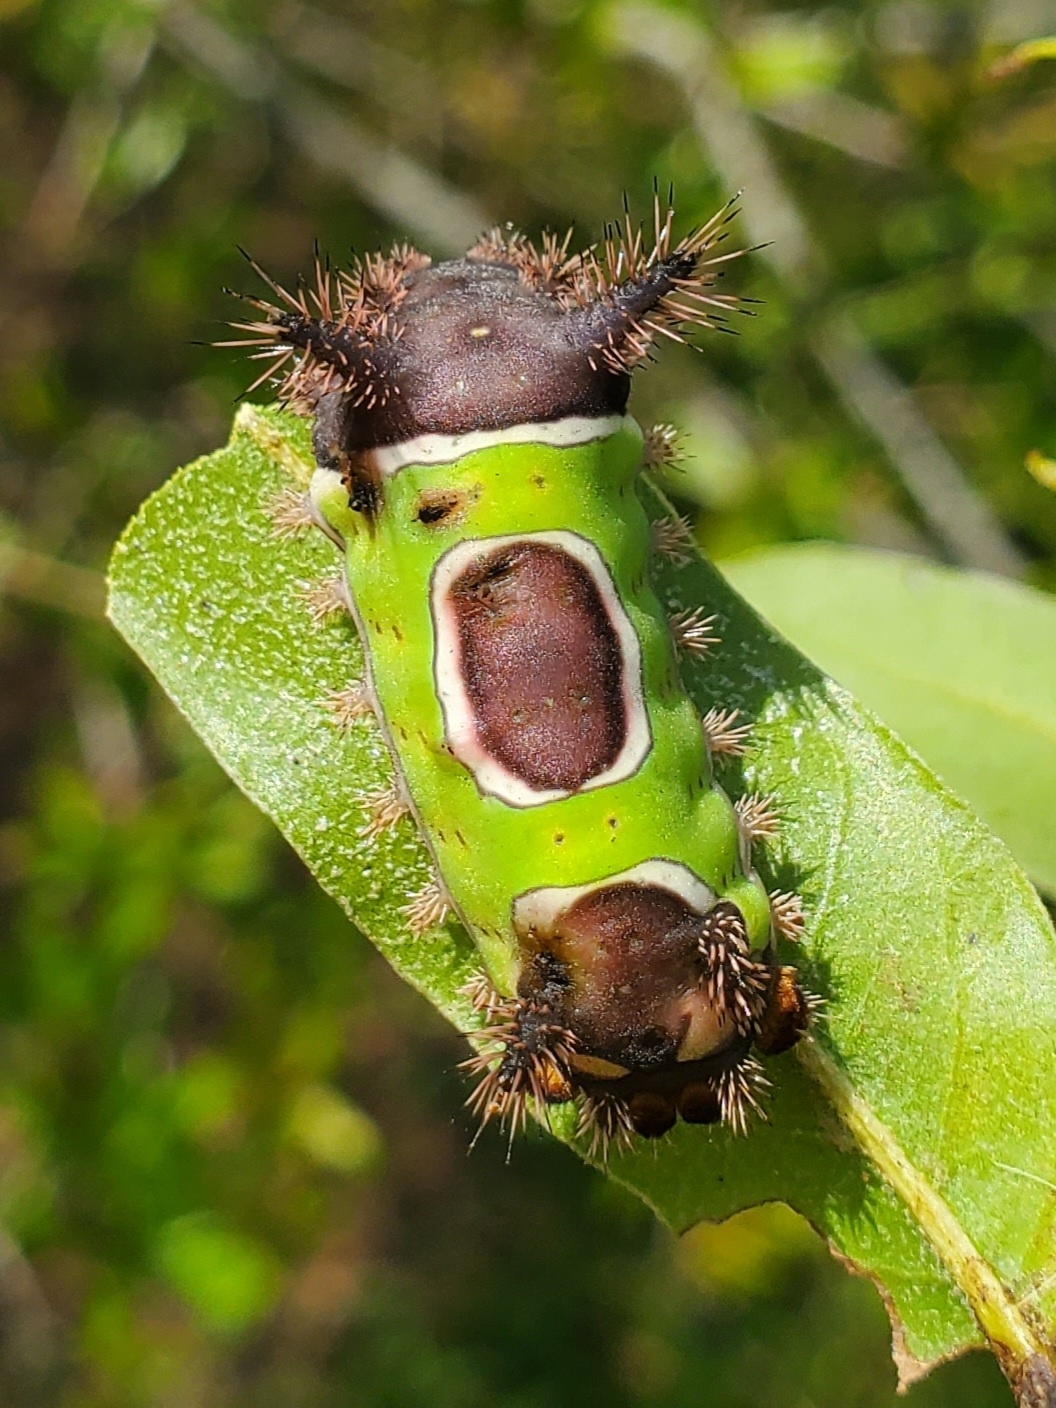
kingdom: Animalia
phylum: Arthropoda
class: Insecta
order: Lepidoptera
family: Limacodidae
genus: Acharia
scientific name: Acharia stimulea
